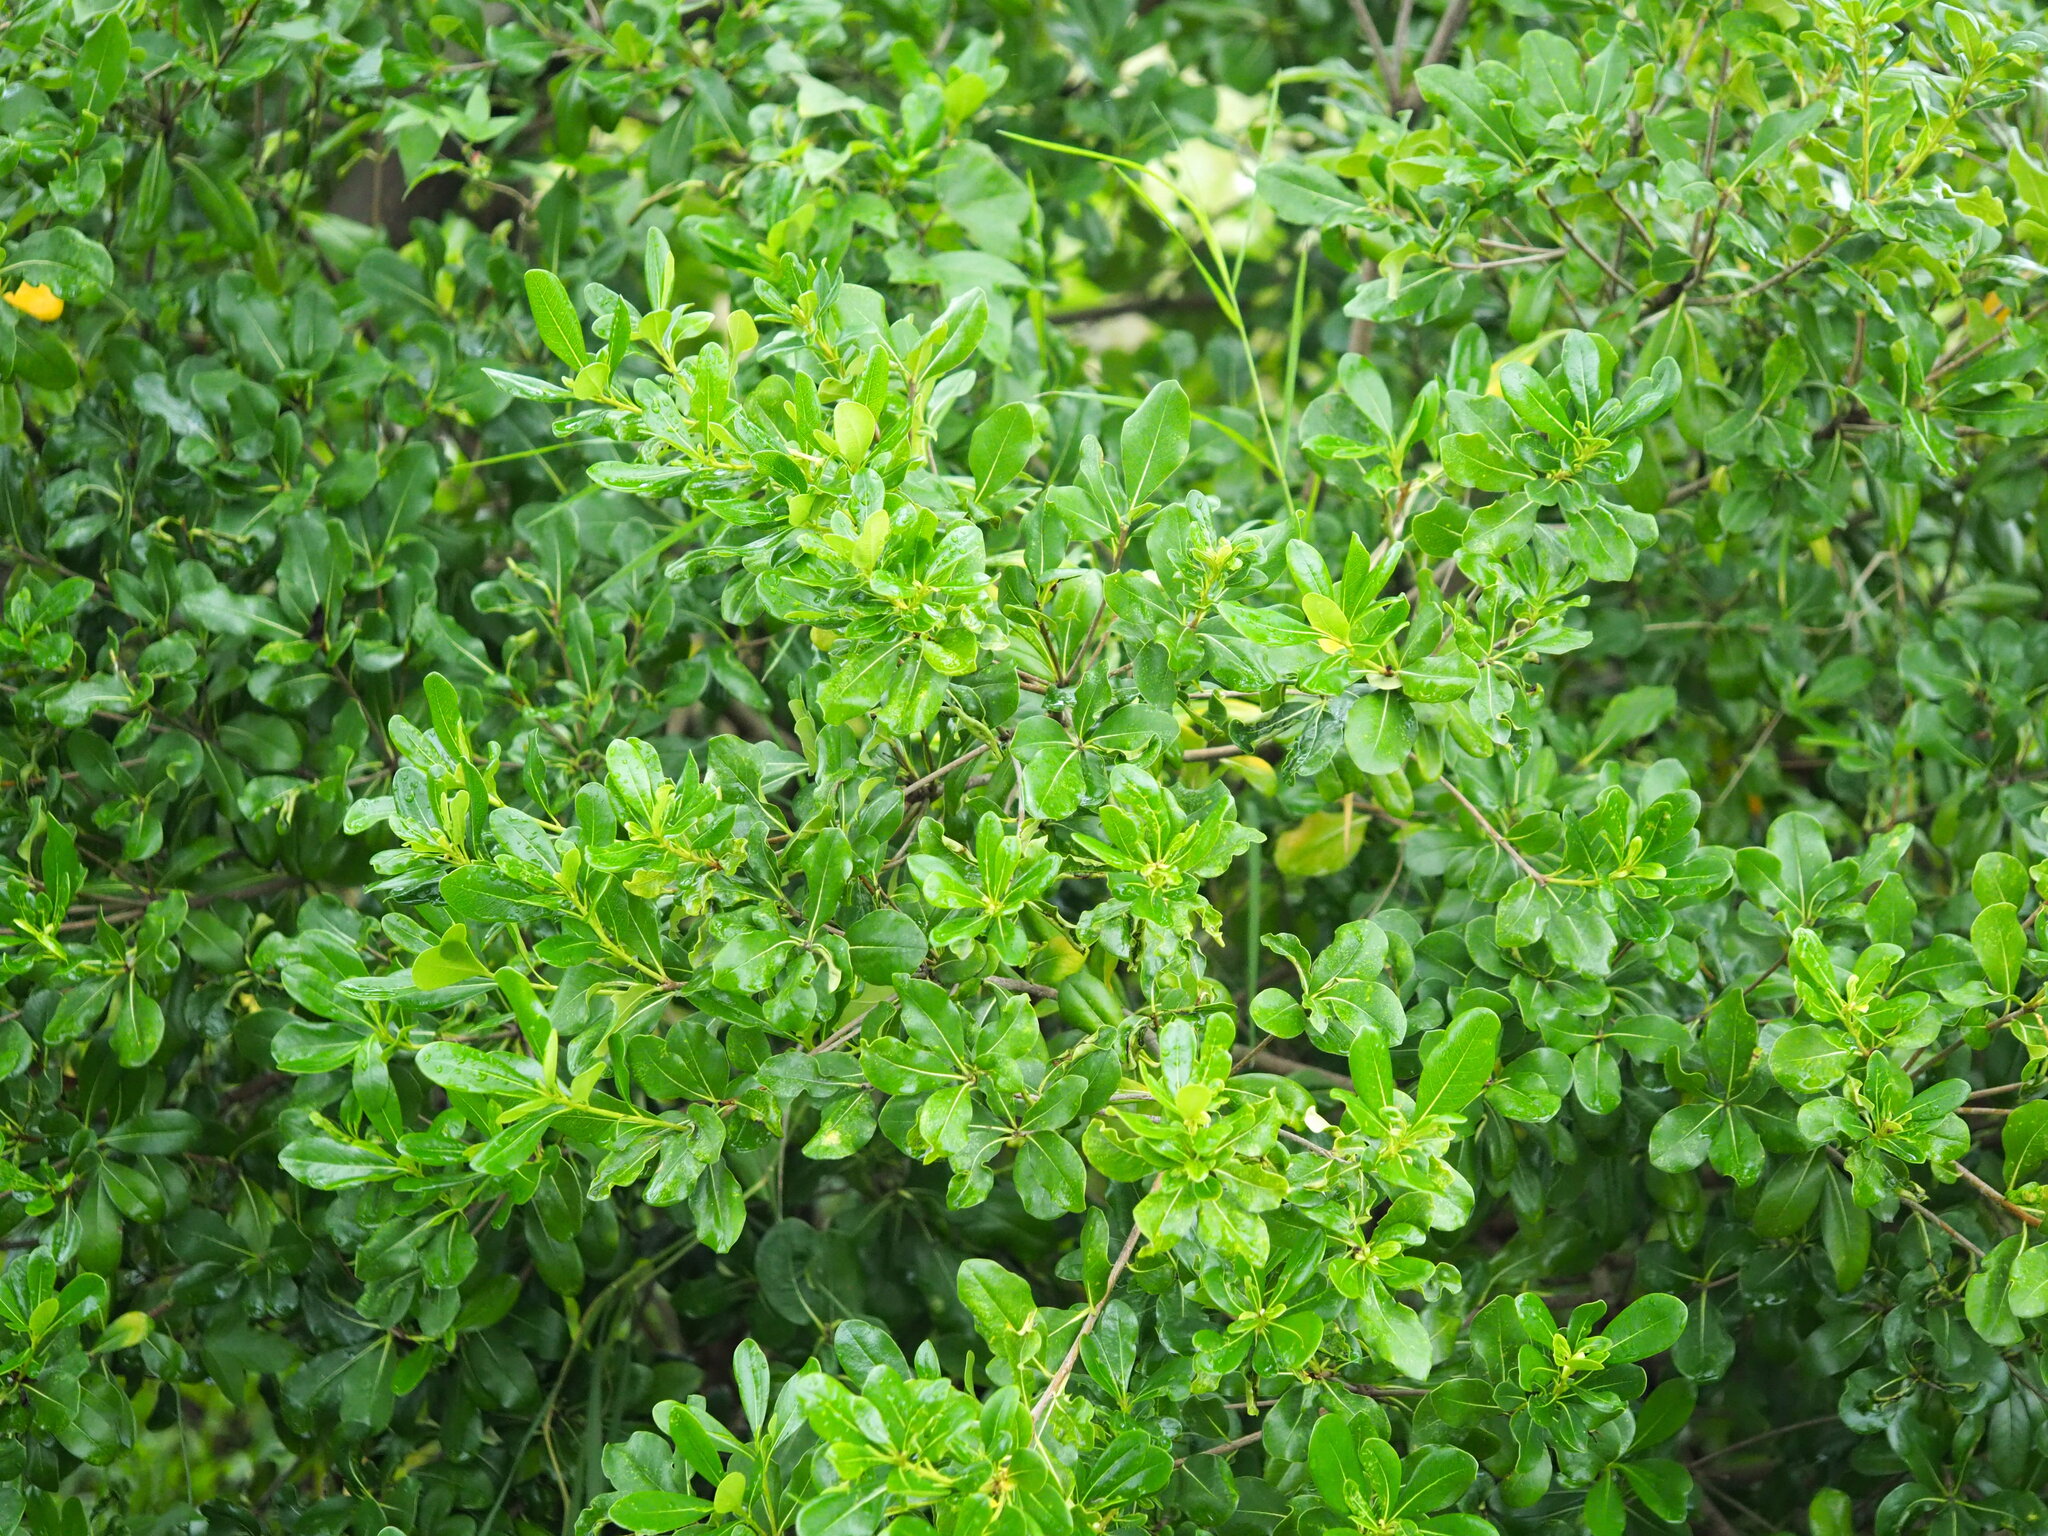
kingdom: Plantae
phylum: Tracheophyta
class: Magnoliopsida
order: Apiales
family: Pittosporaceae
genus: Pittosporum
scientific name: Pittosporum tobira
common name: Japanese cheesewood
